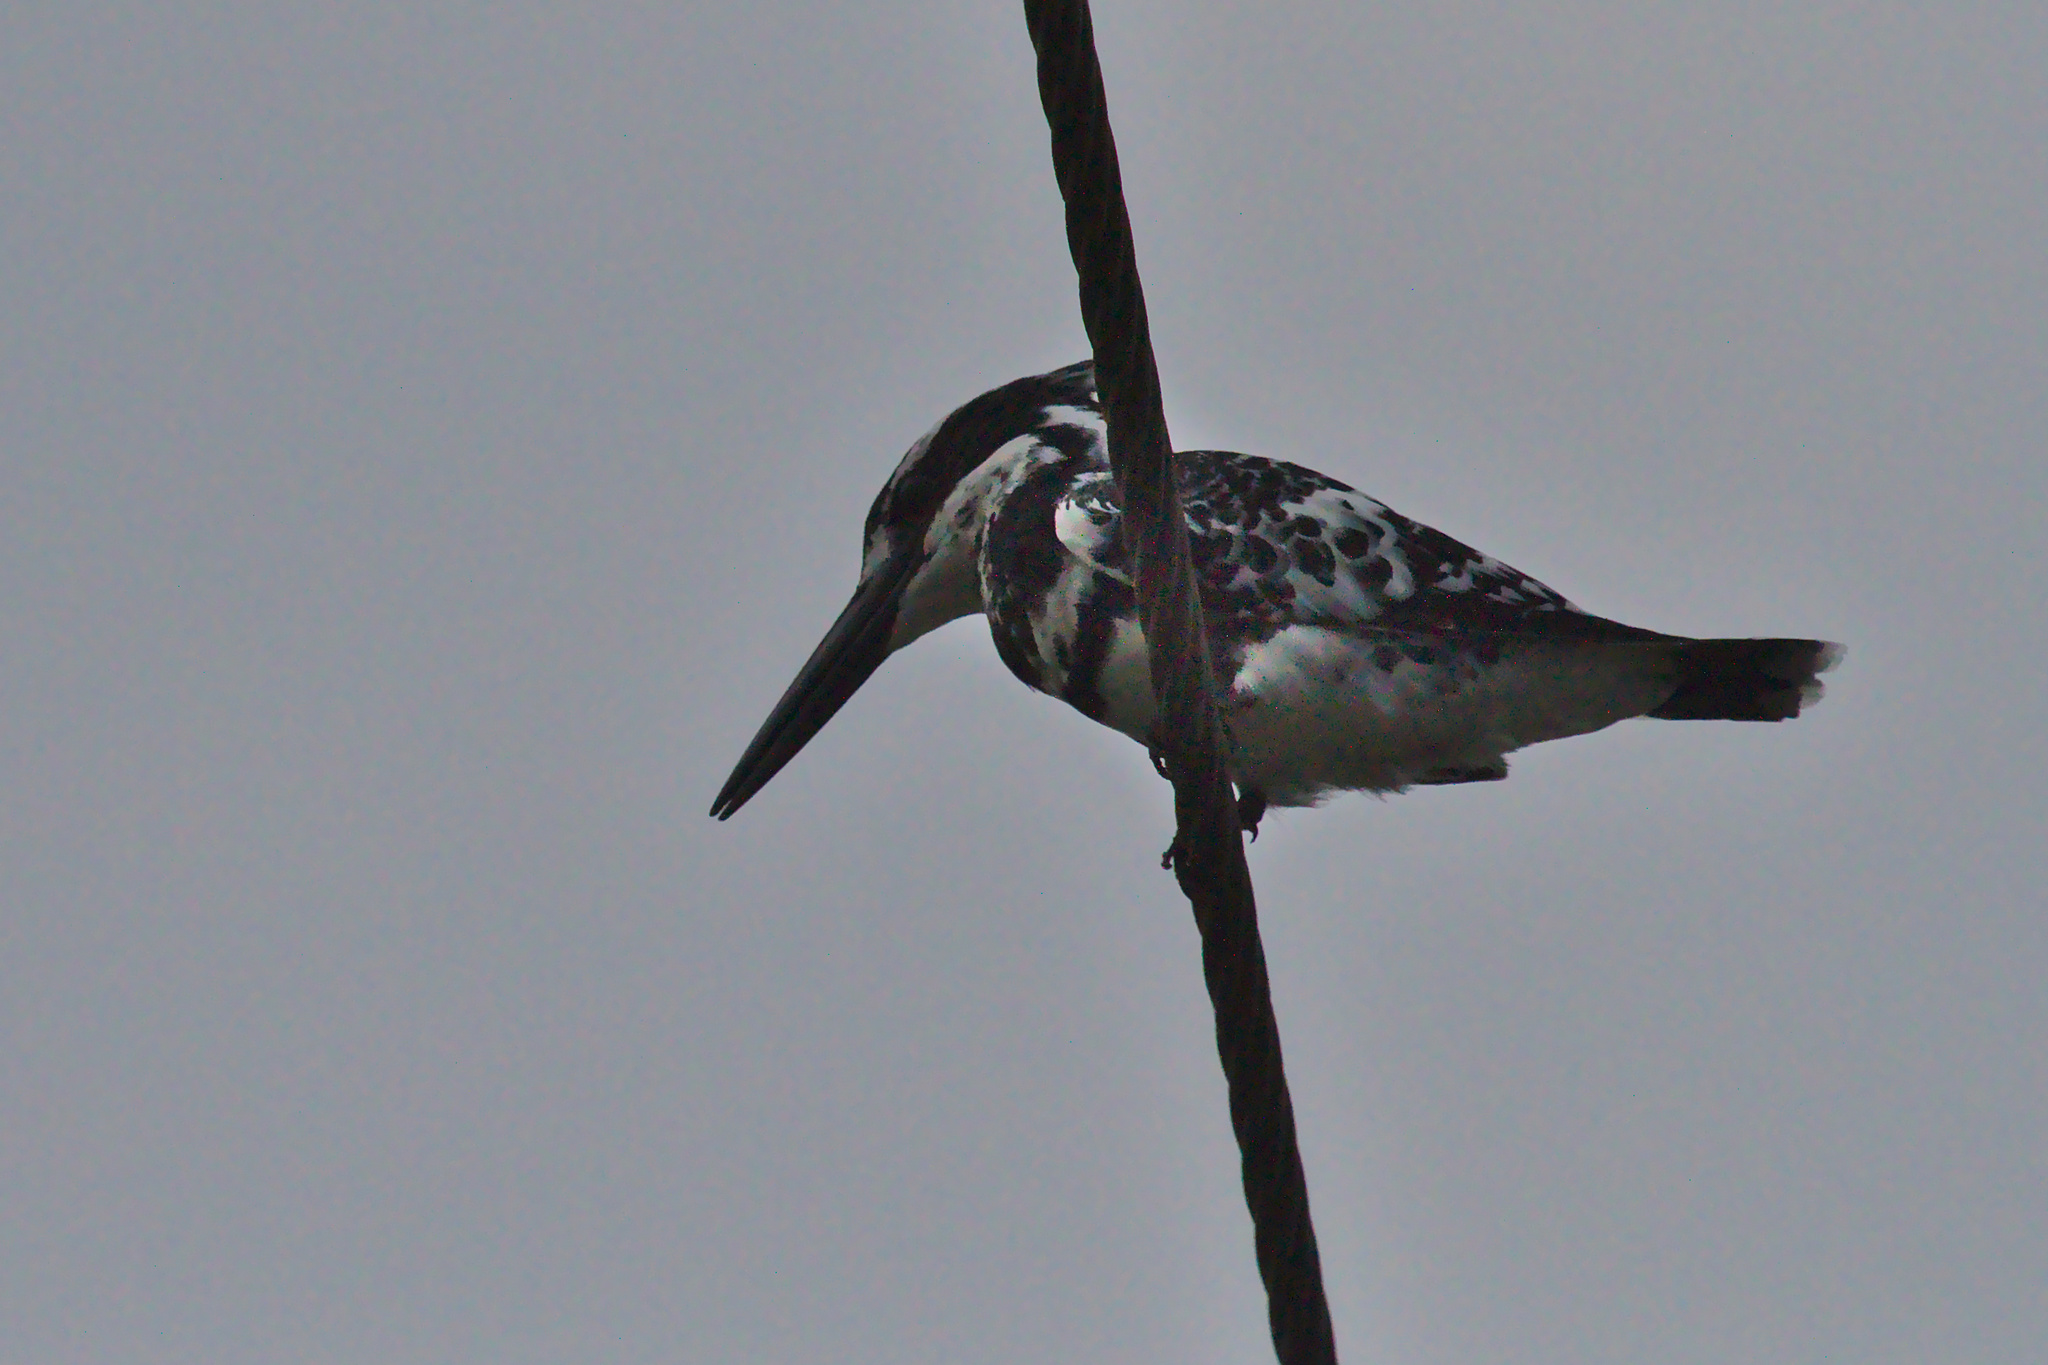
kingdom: Animalia
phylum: Chordata
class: Aves
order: Coraciiformes
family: Alcedinidae
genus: Ceryle
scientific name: Ceryle rudis
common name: Pied kingfisher
